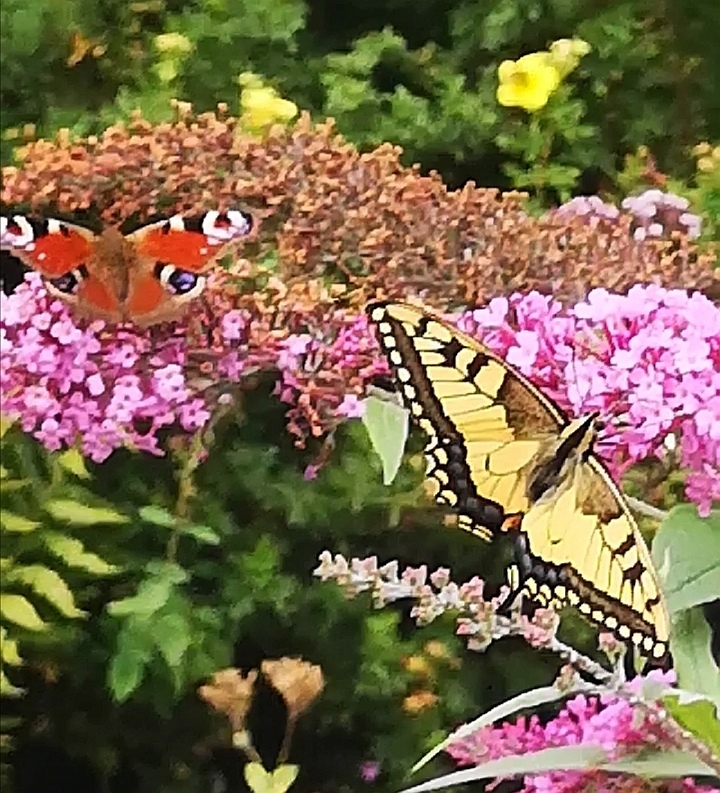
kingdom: Animalia
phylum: Arthropoda
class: Insecta
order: Lepidoptera
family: Papilionidae
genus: Papilio
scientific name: Papilio machaon
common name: Swallowtail
